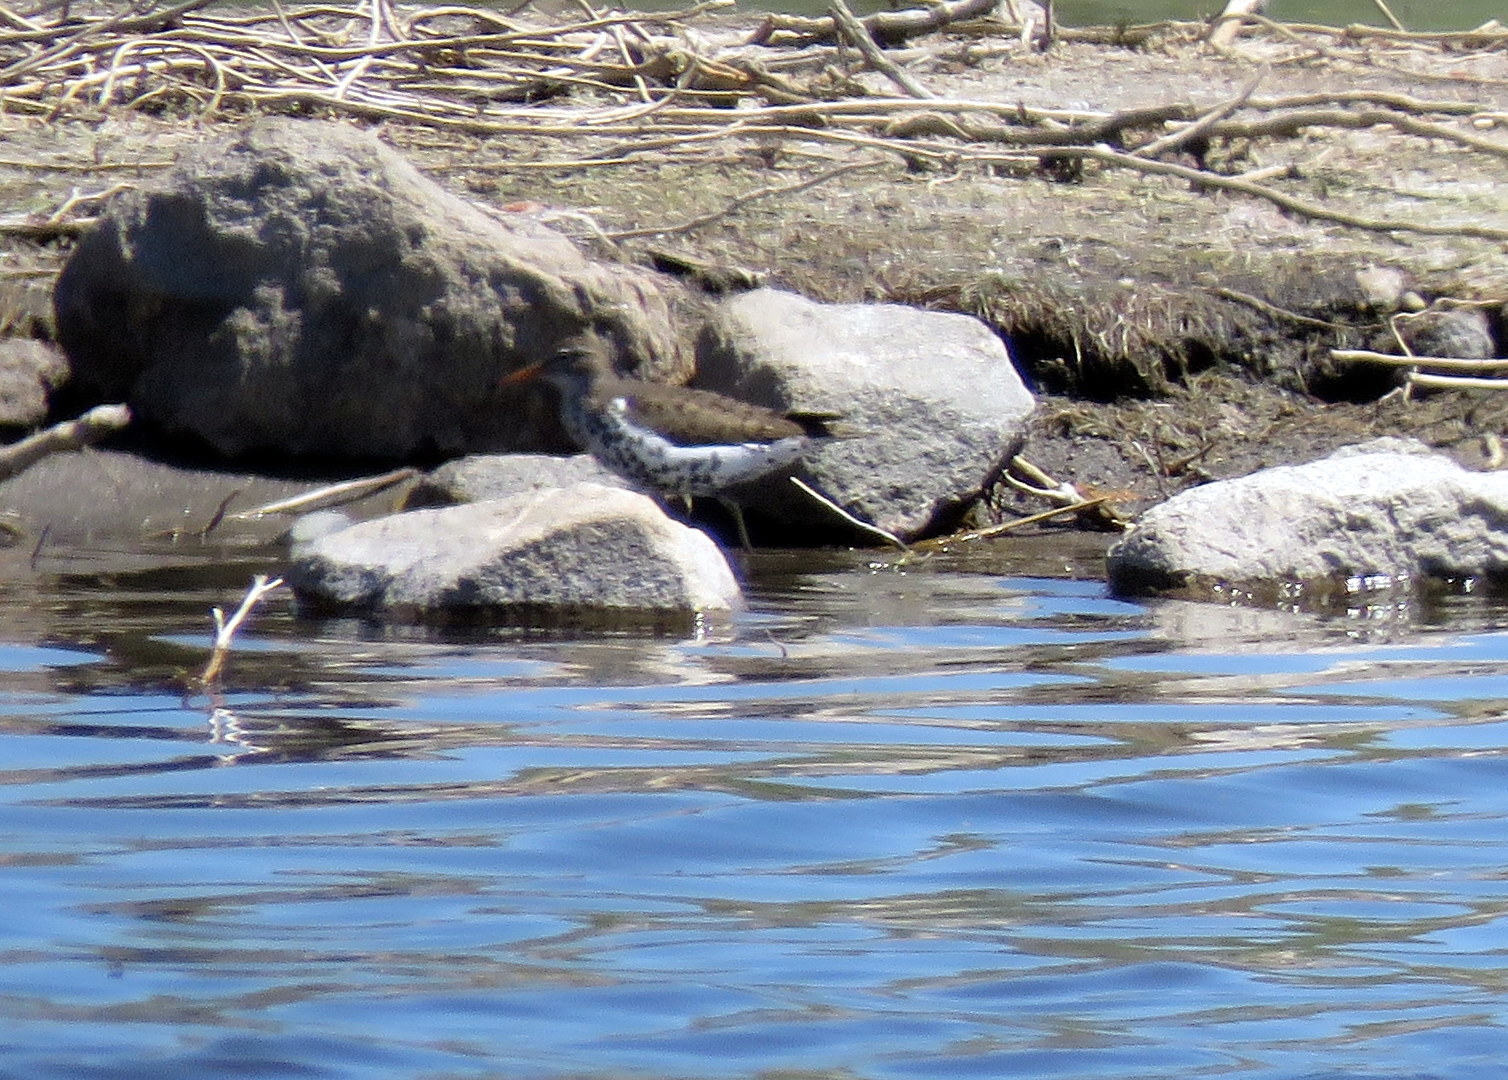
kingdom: Animalia
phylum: Chordata
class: Aves
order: Charadriiformes
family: Scolopacidae
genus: Actitis
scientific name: Actitis macularius
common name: Spotted sandpiper
